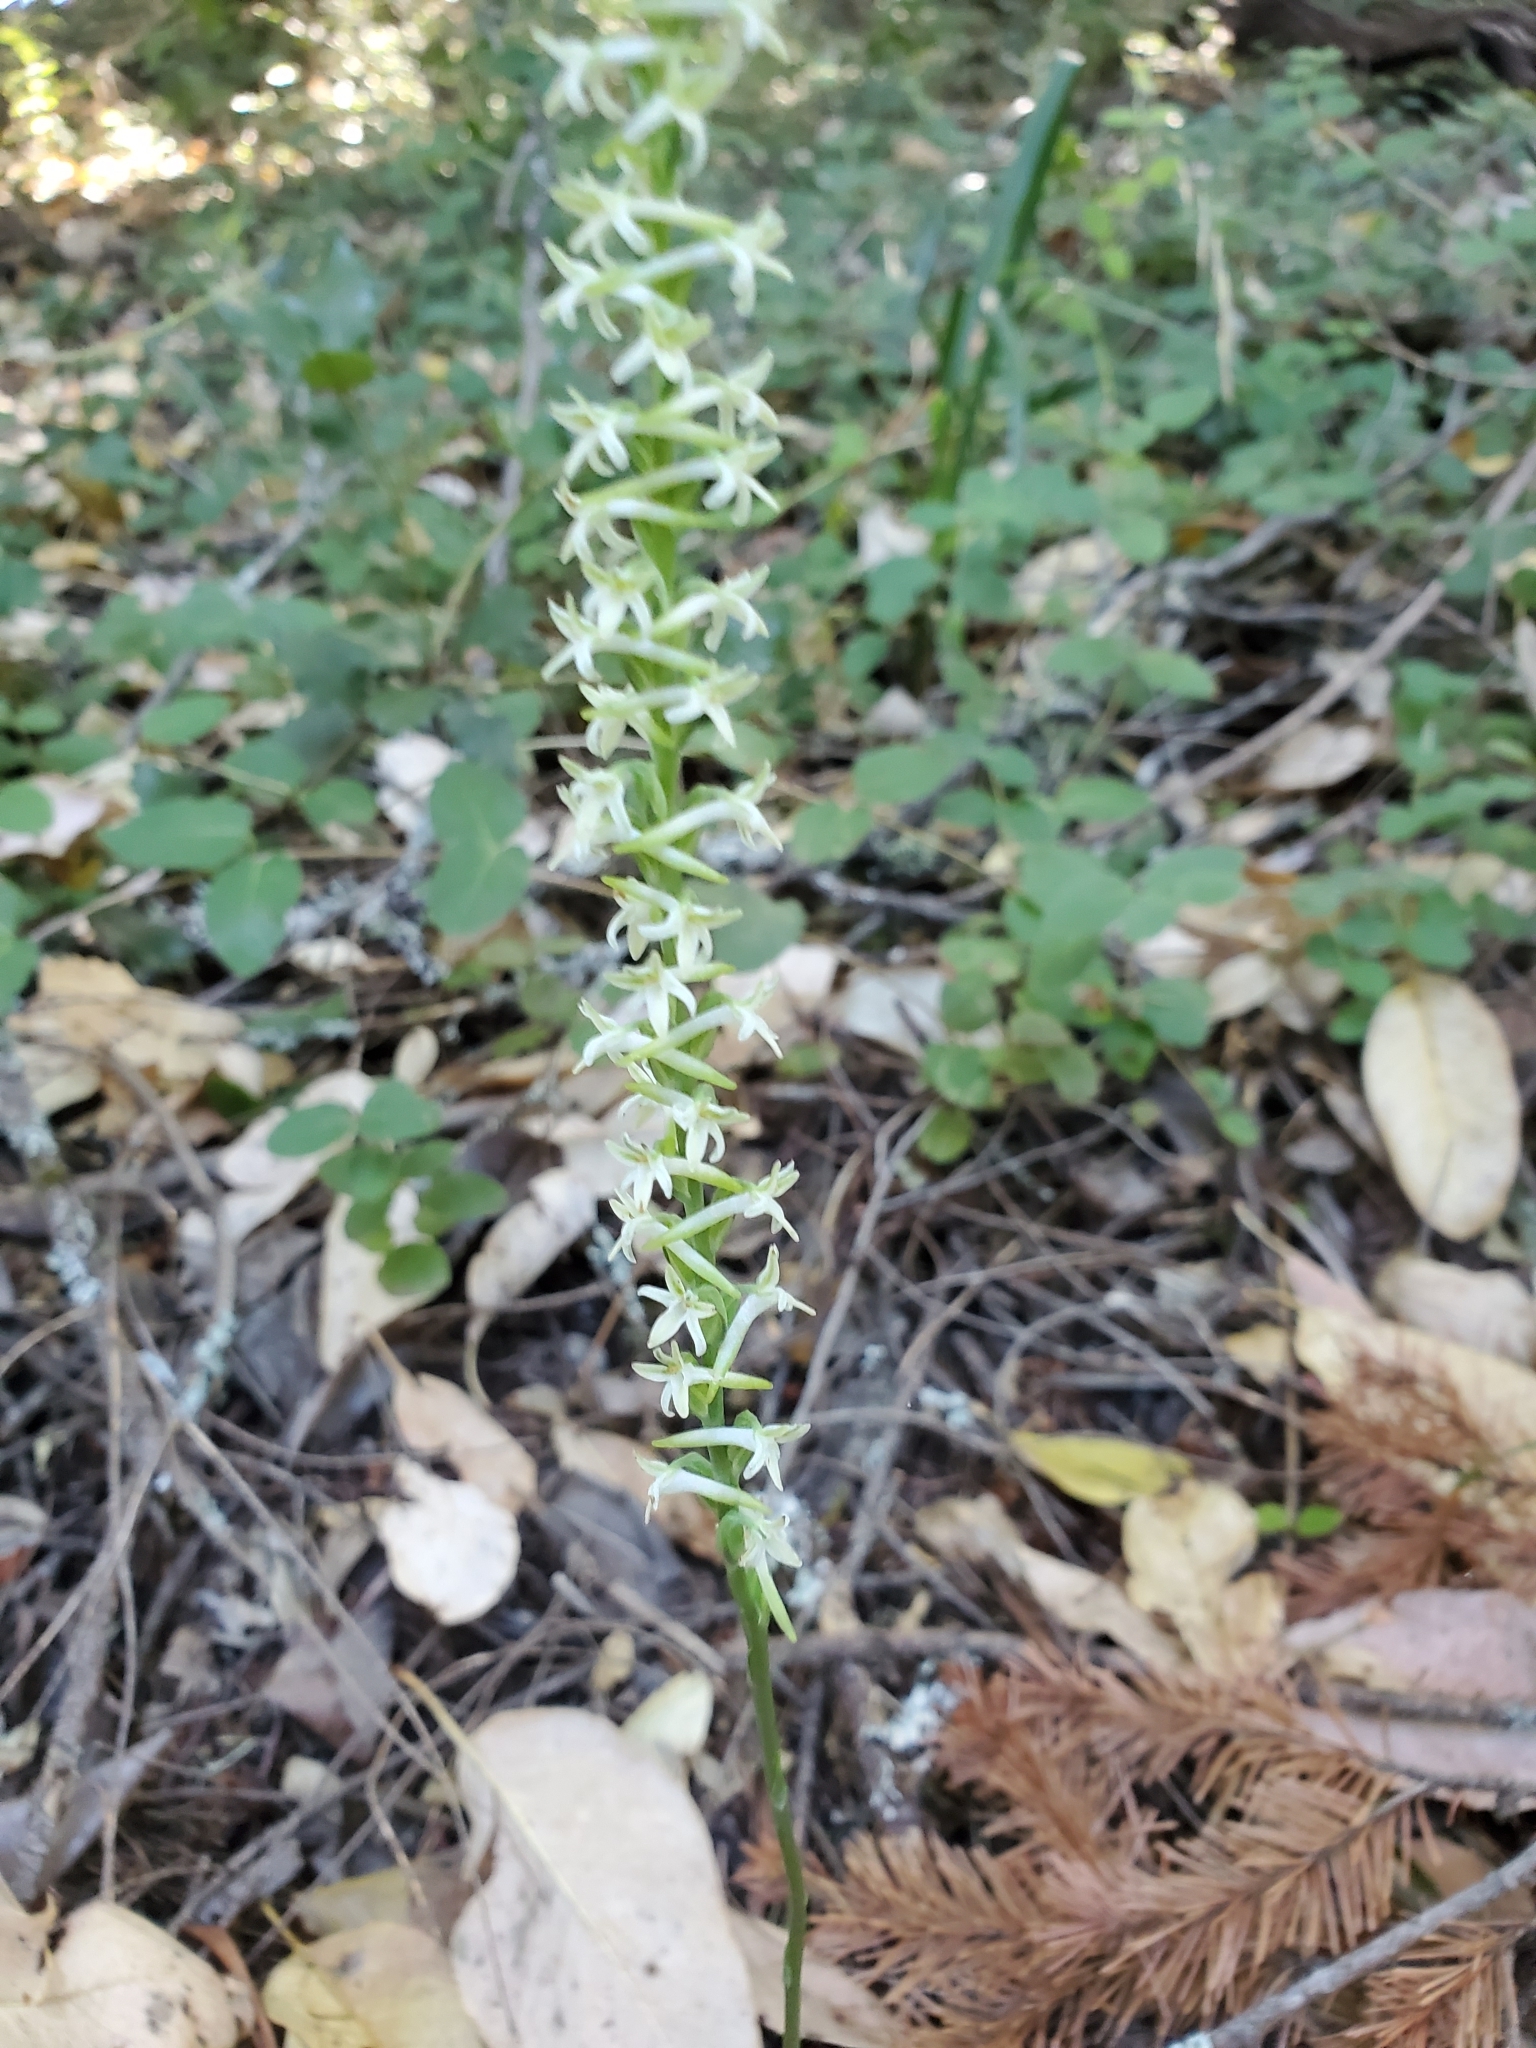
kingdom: Plantae
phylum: Tracheophyta
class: Liliopsida
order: Asparagales
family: Orchidaceae
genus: Platanthera
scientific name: Platanthera transversa
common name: Royal rein orchid
